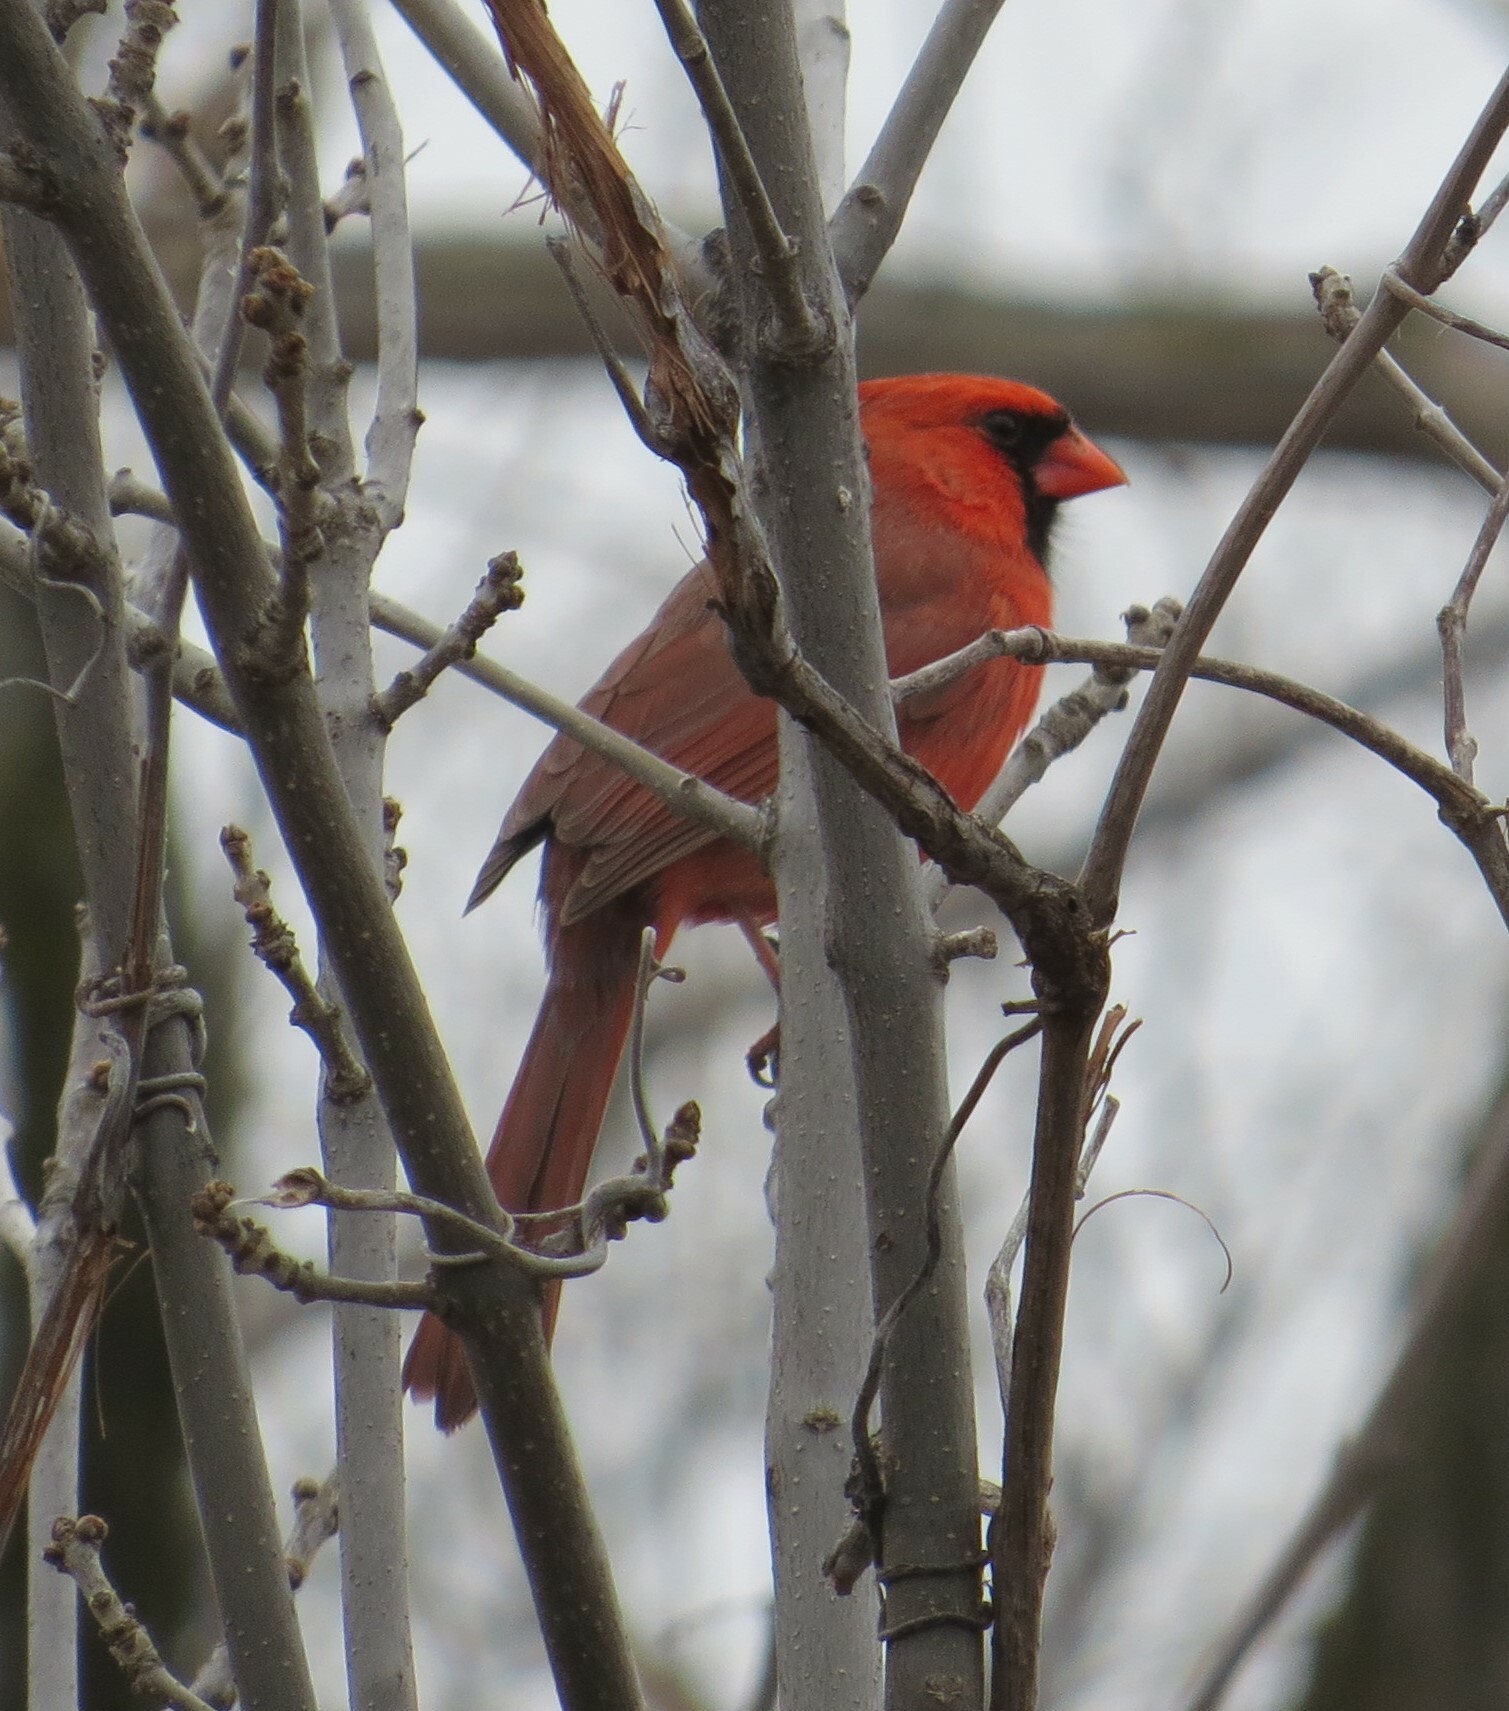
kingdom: Animalia
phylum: Chordata
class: Aves
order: Passeriformes
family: Cardinalidae
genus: Cardinalis
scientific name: Cardinalis cardinalis
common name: Northern cardinal
